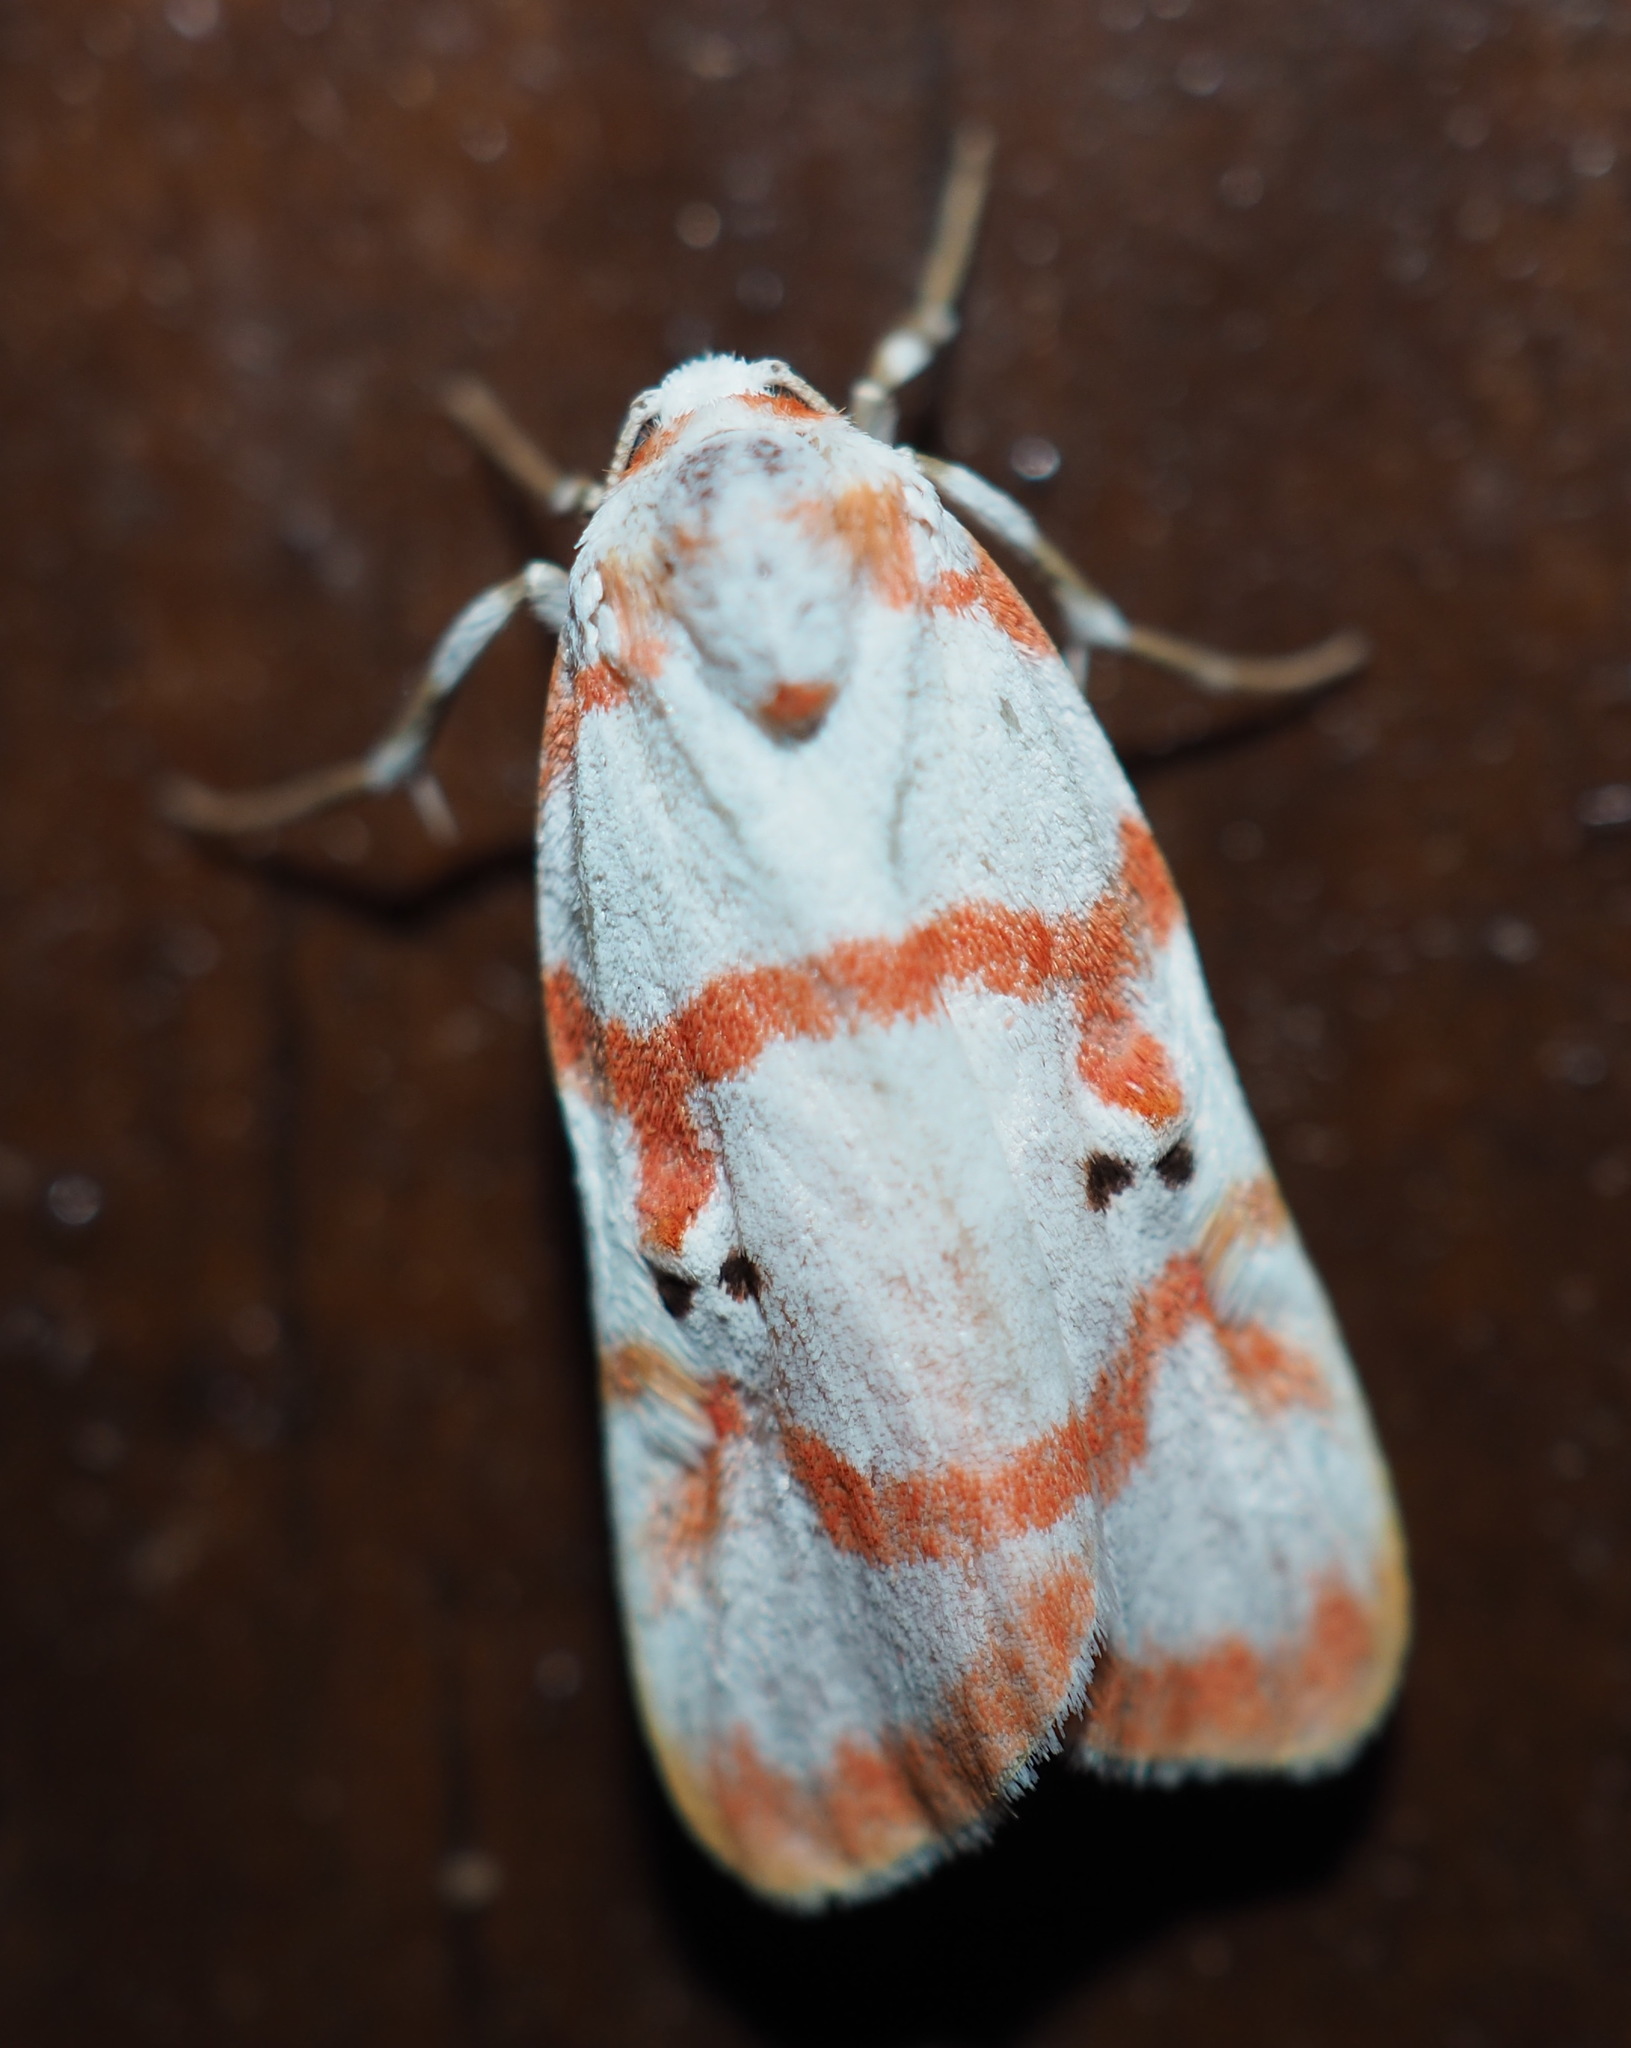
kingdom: Animalia
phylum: Arthropoda
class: Insecta
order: Lepidoptera
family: Erebidae
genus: Cyana
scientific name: Cyana hamata
